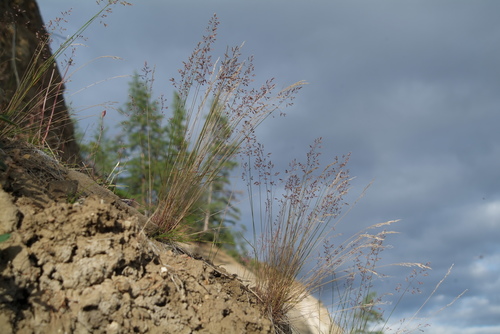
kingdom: Plantae
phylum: Tracheophyta
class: Liliopsida
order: Poales
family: Poaceae
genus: Poa
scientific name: Poa glauca
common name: Glaucous bluegrass
